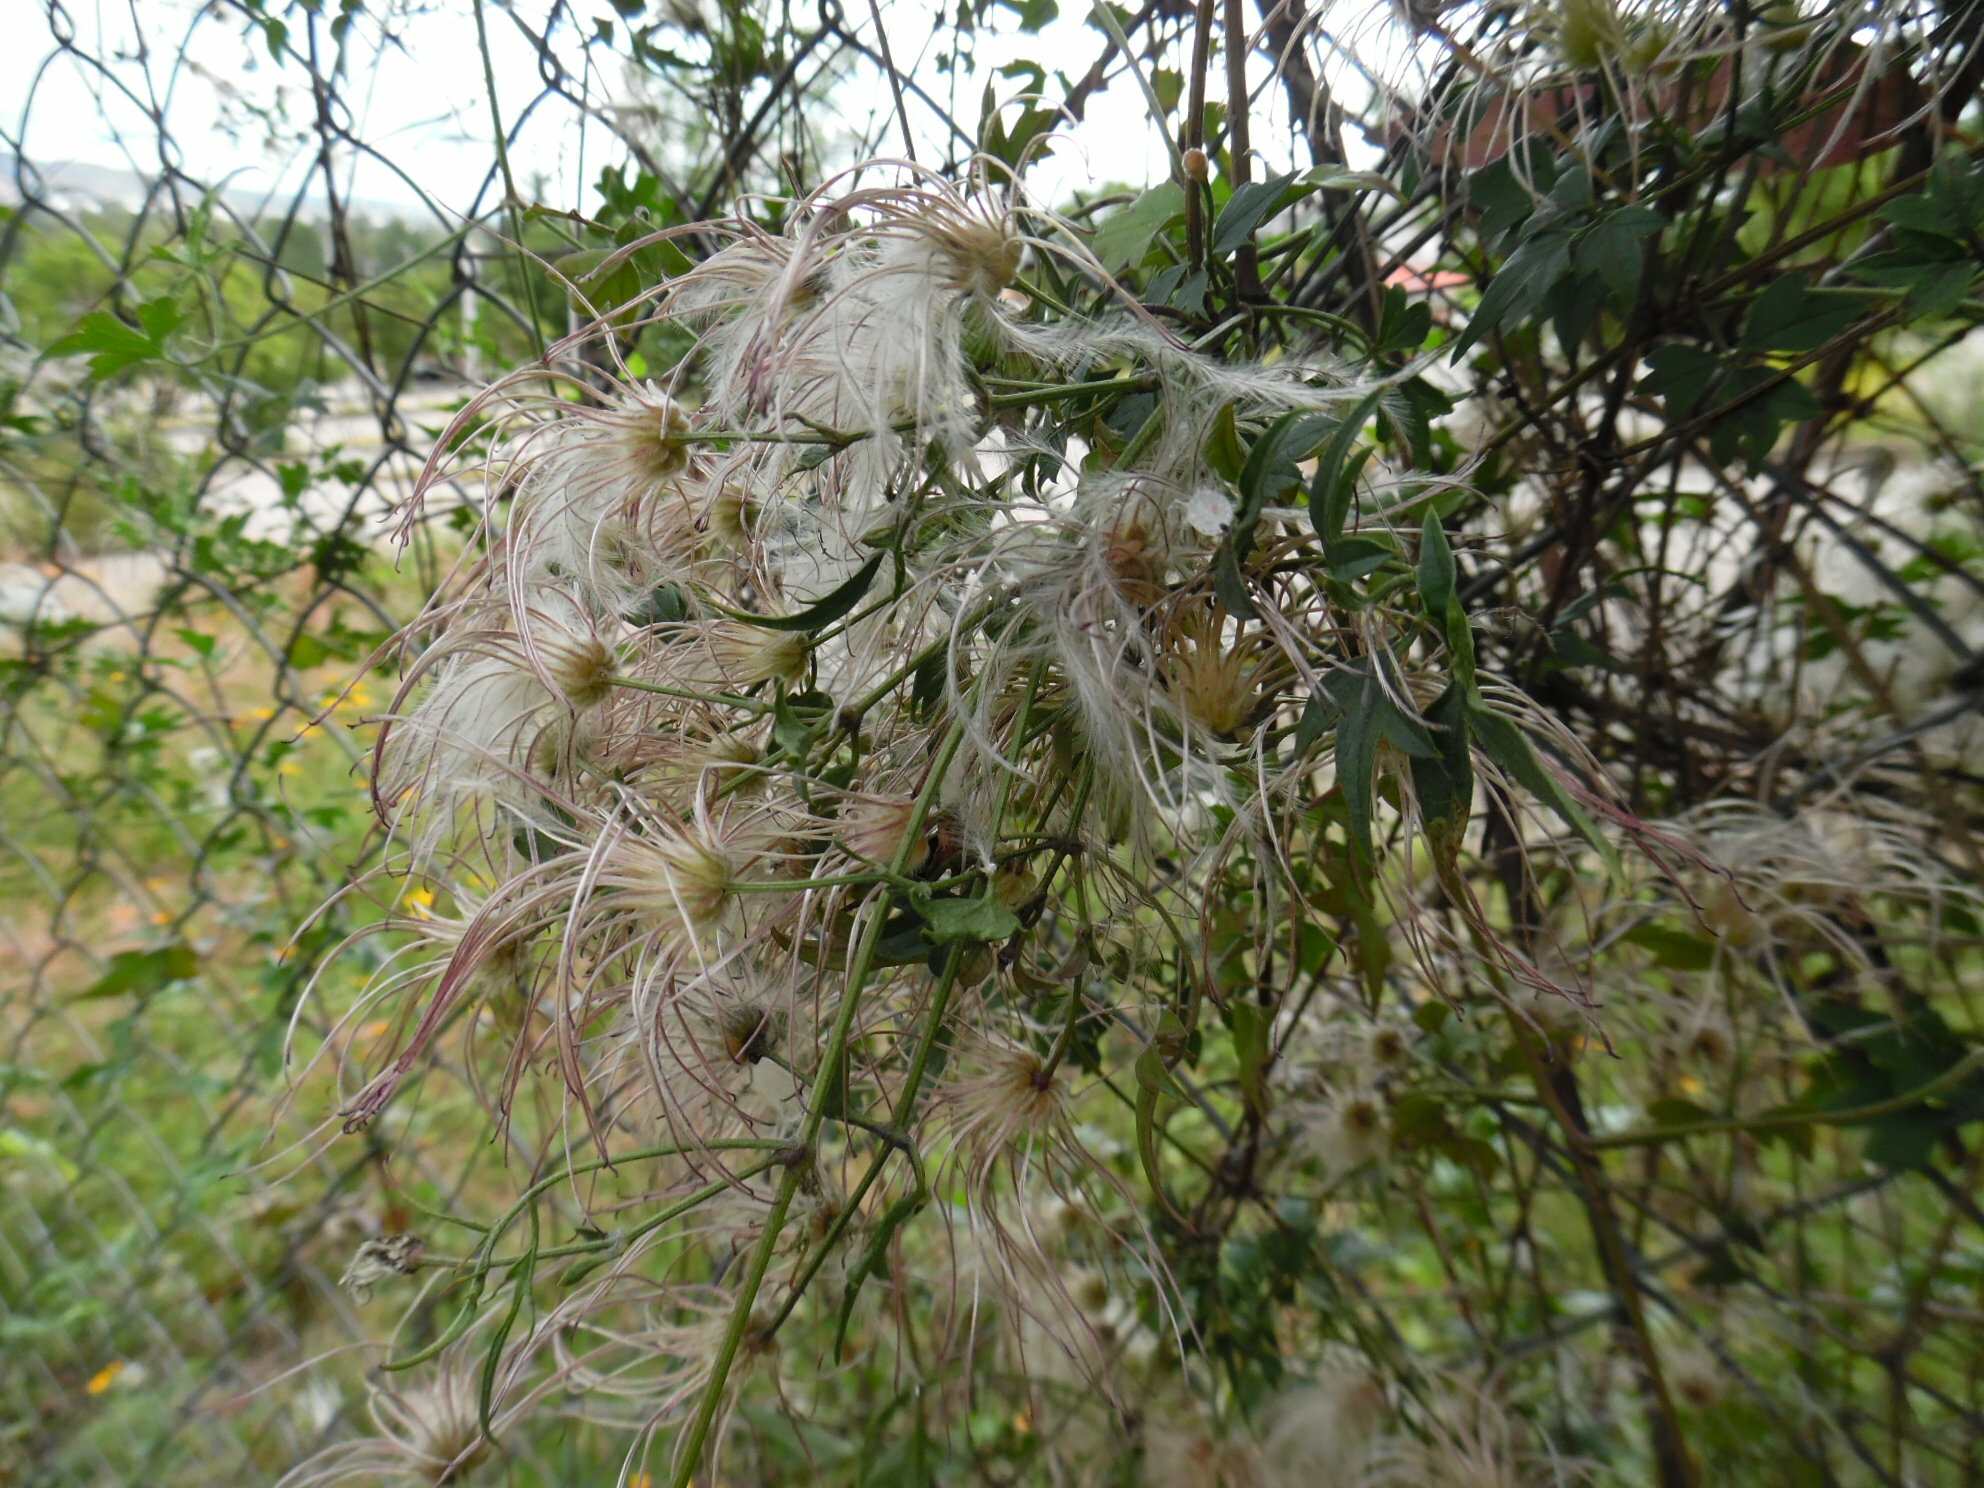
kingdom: Plantae
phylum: Tracheophyta
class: Magnoliopsida
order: Ranunculales
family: Ranunculaceae
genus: Clematis
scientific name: Clematis drummondii
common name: Texas virgin's bower
